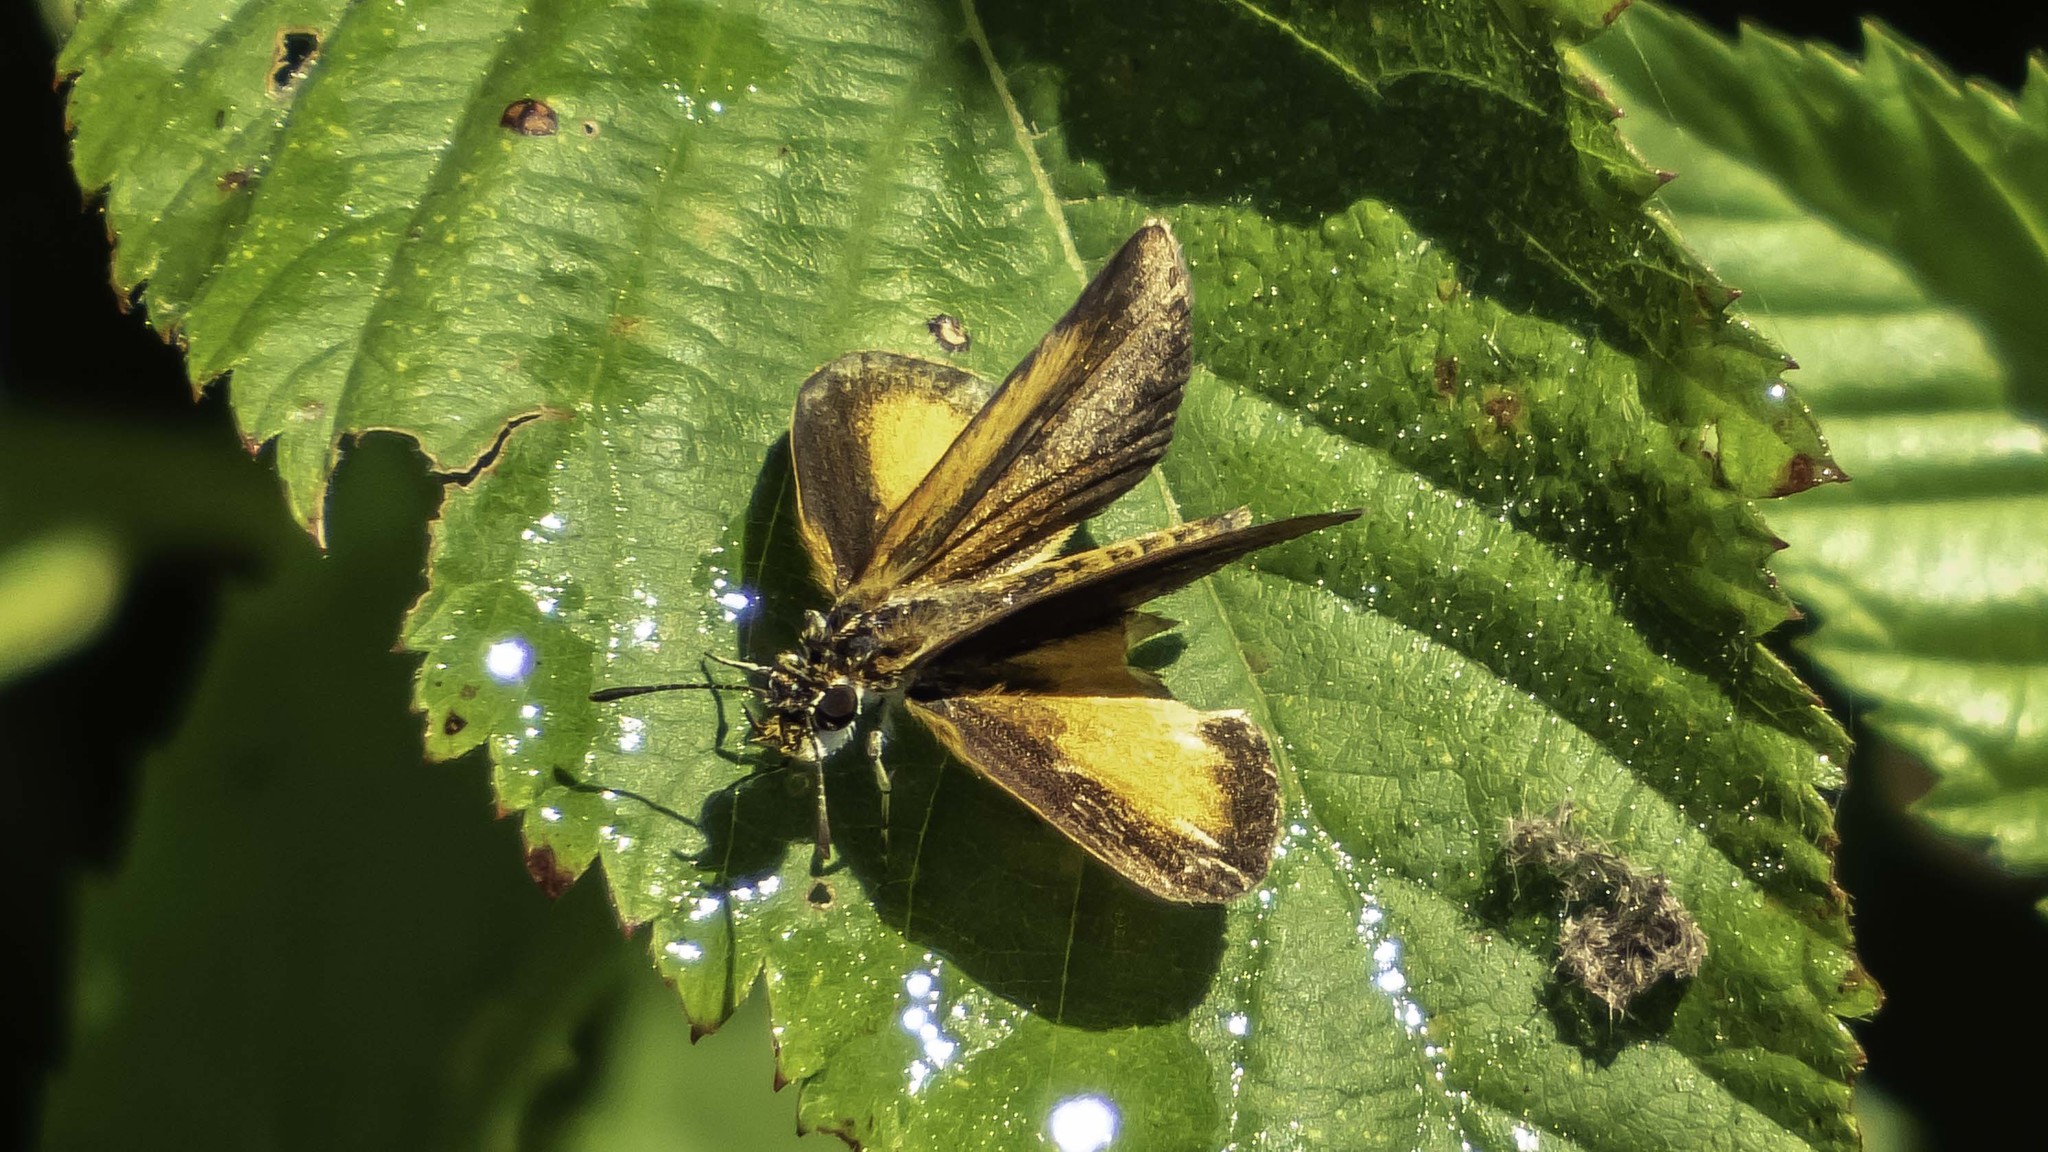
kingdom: Animalia
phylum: Arthropoda
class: Insecta
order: Lepidoptera
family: Hesperiidae
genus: Ancyloxypha
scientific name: Ancyloxypha numitor
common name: Least skipper
